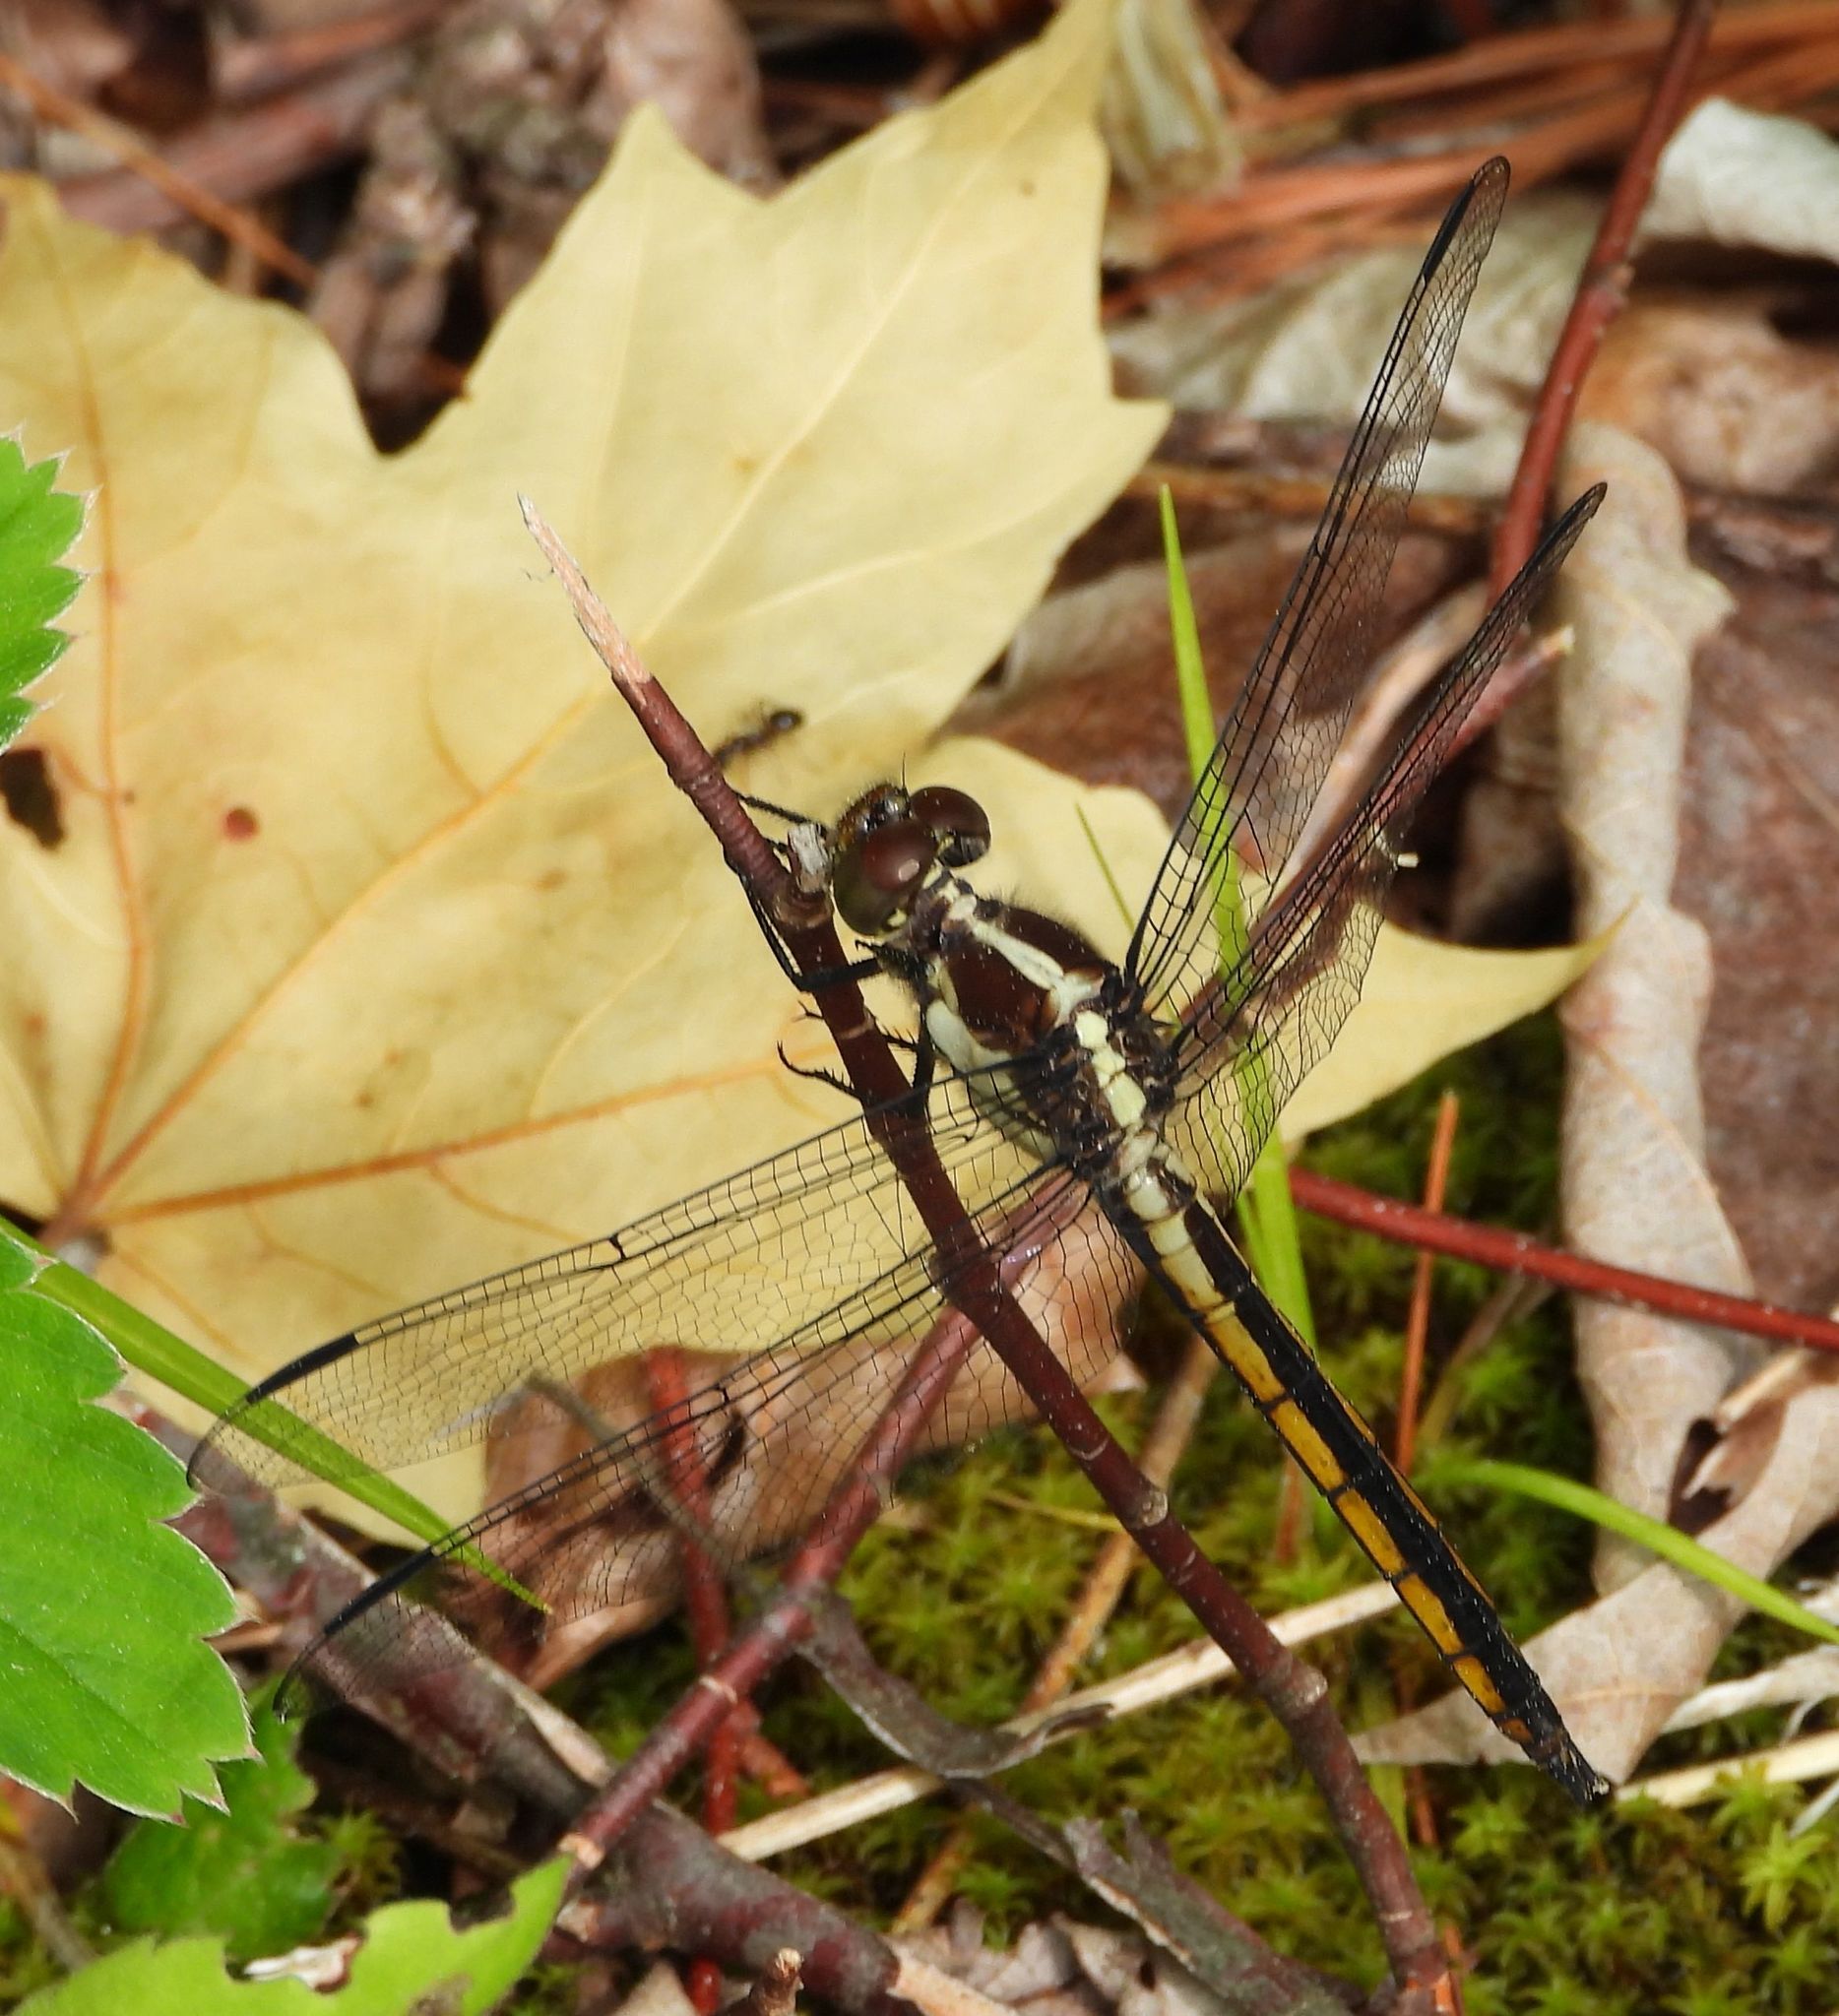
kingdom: Animalia
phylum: Arthropoda
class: Insecta
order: Odonata
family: Libellulidae
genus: Libellula
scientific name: Libellula incesta
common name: Slaty skimmer
